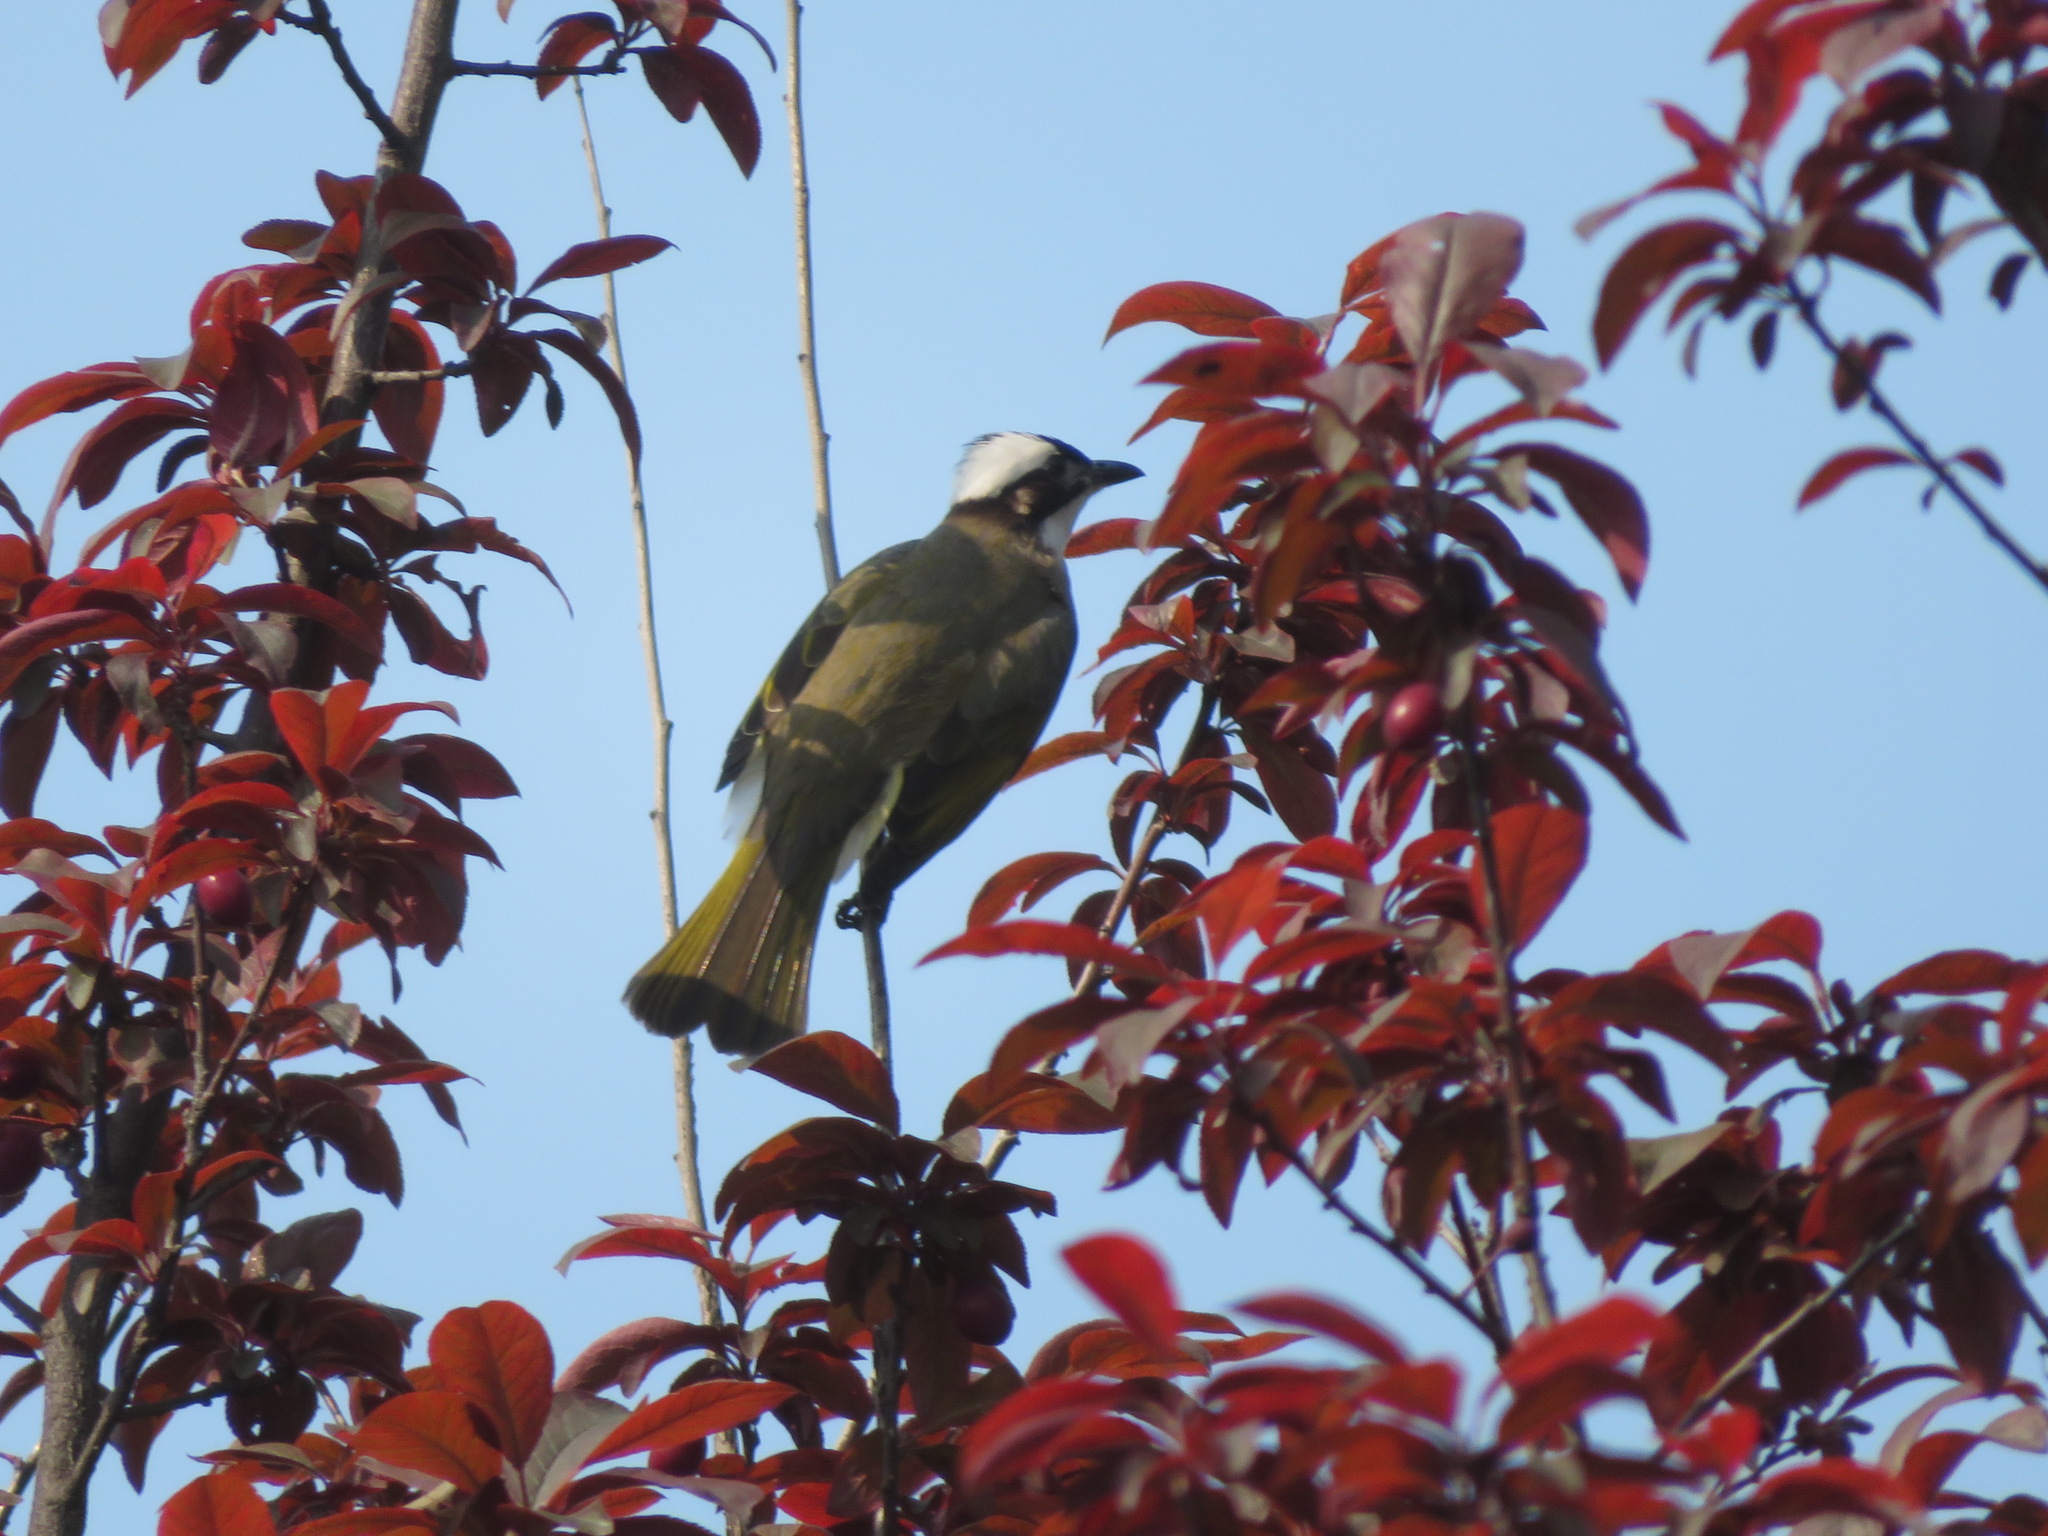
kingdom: Animalia
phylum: Chordata
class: Aves
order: Passeriformes
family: Pycnonotidae
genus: Pycnonotus
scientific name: Pycnonotus sinensis
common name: Light-vented bulbul
